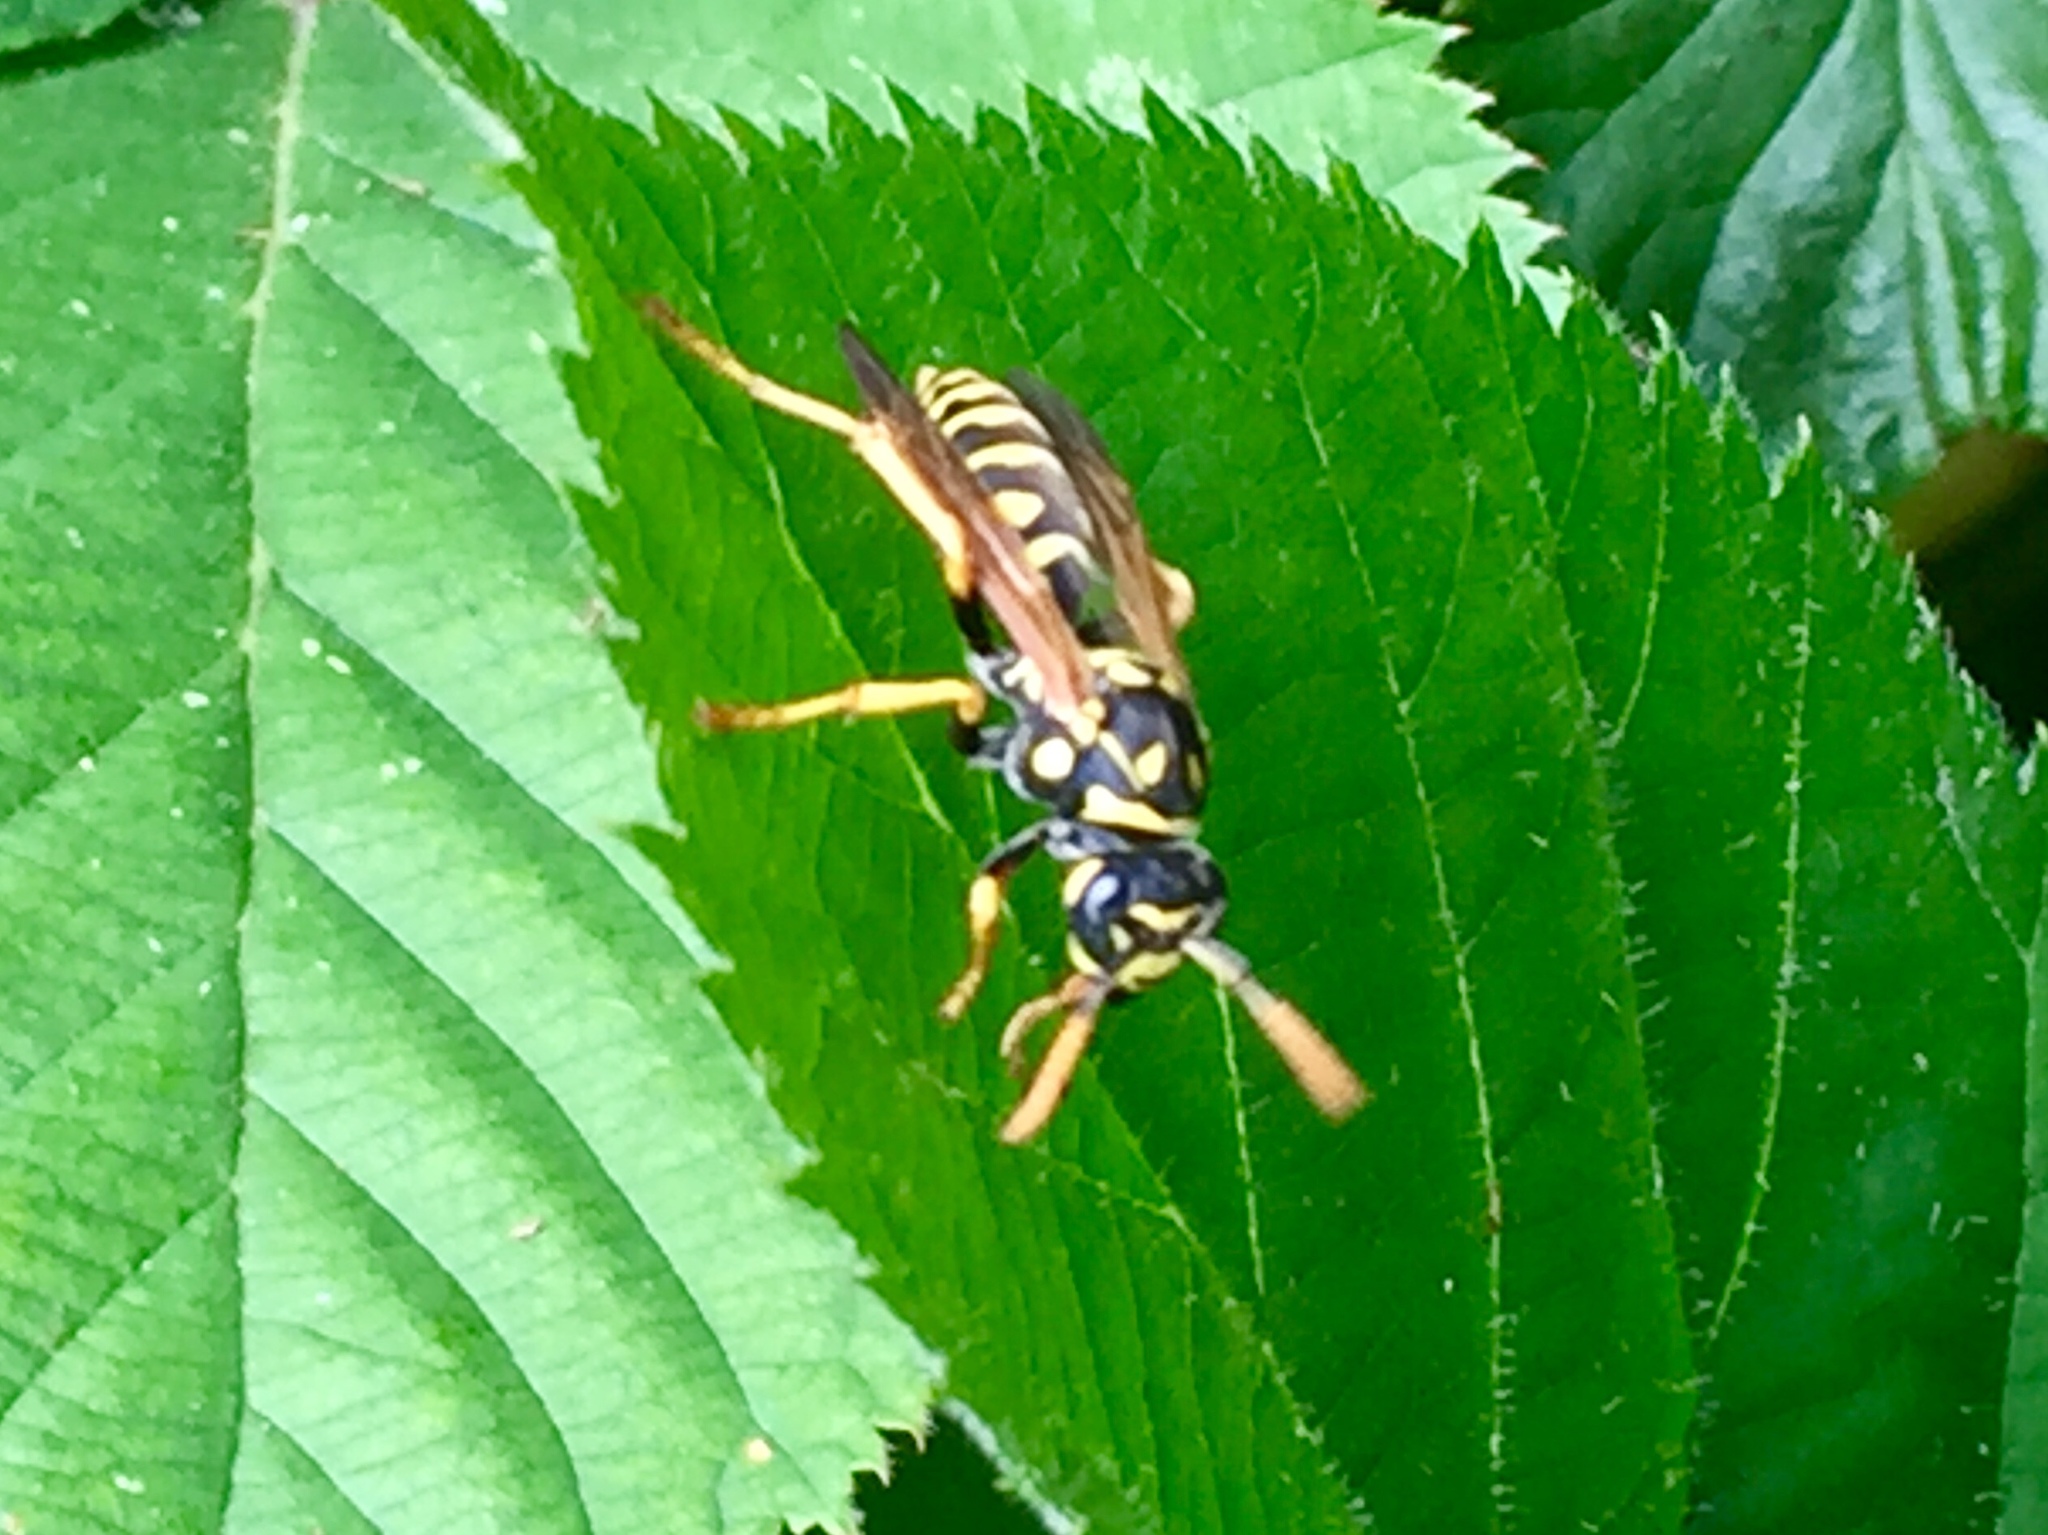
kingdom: Animalia
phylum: Arthropoda
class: Insecta
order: Hymenoptera
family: Eumenidae
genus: Polistes
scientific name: Polistes dominula
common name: Paper wasp
